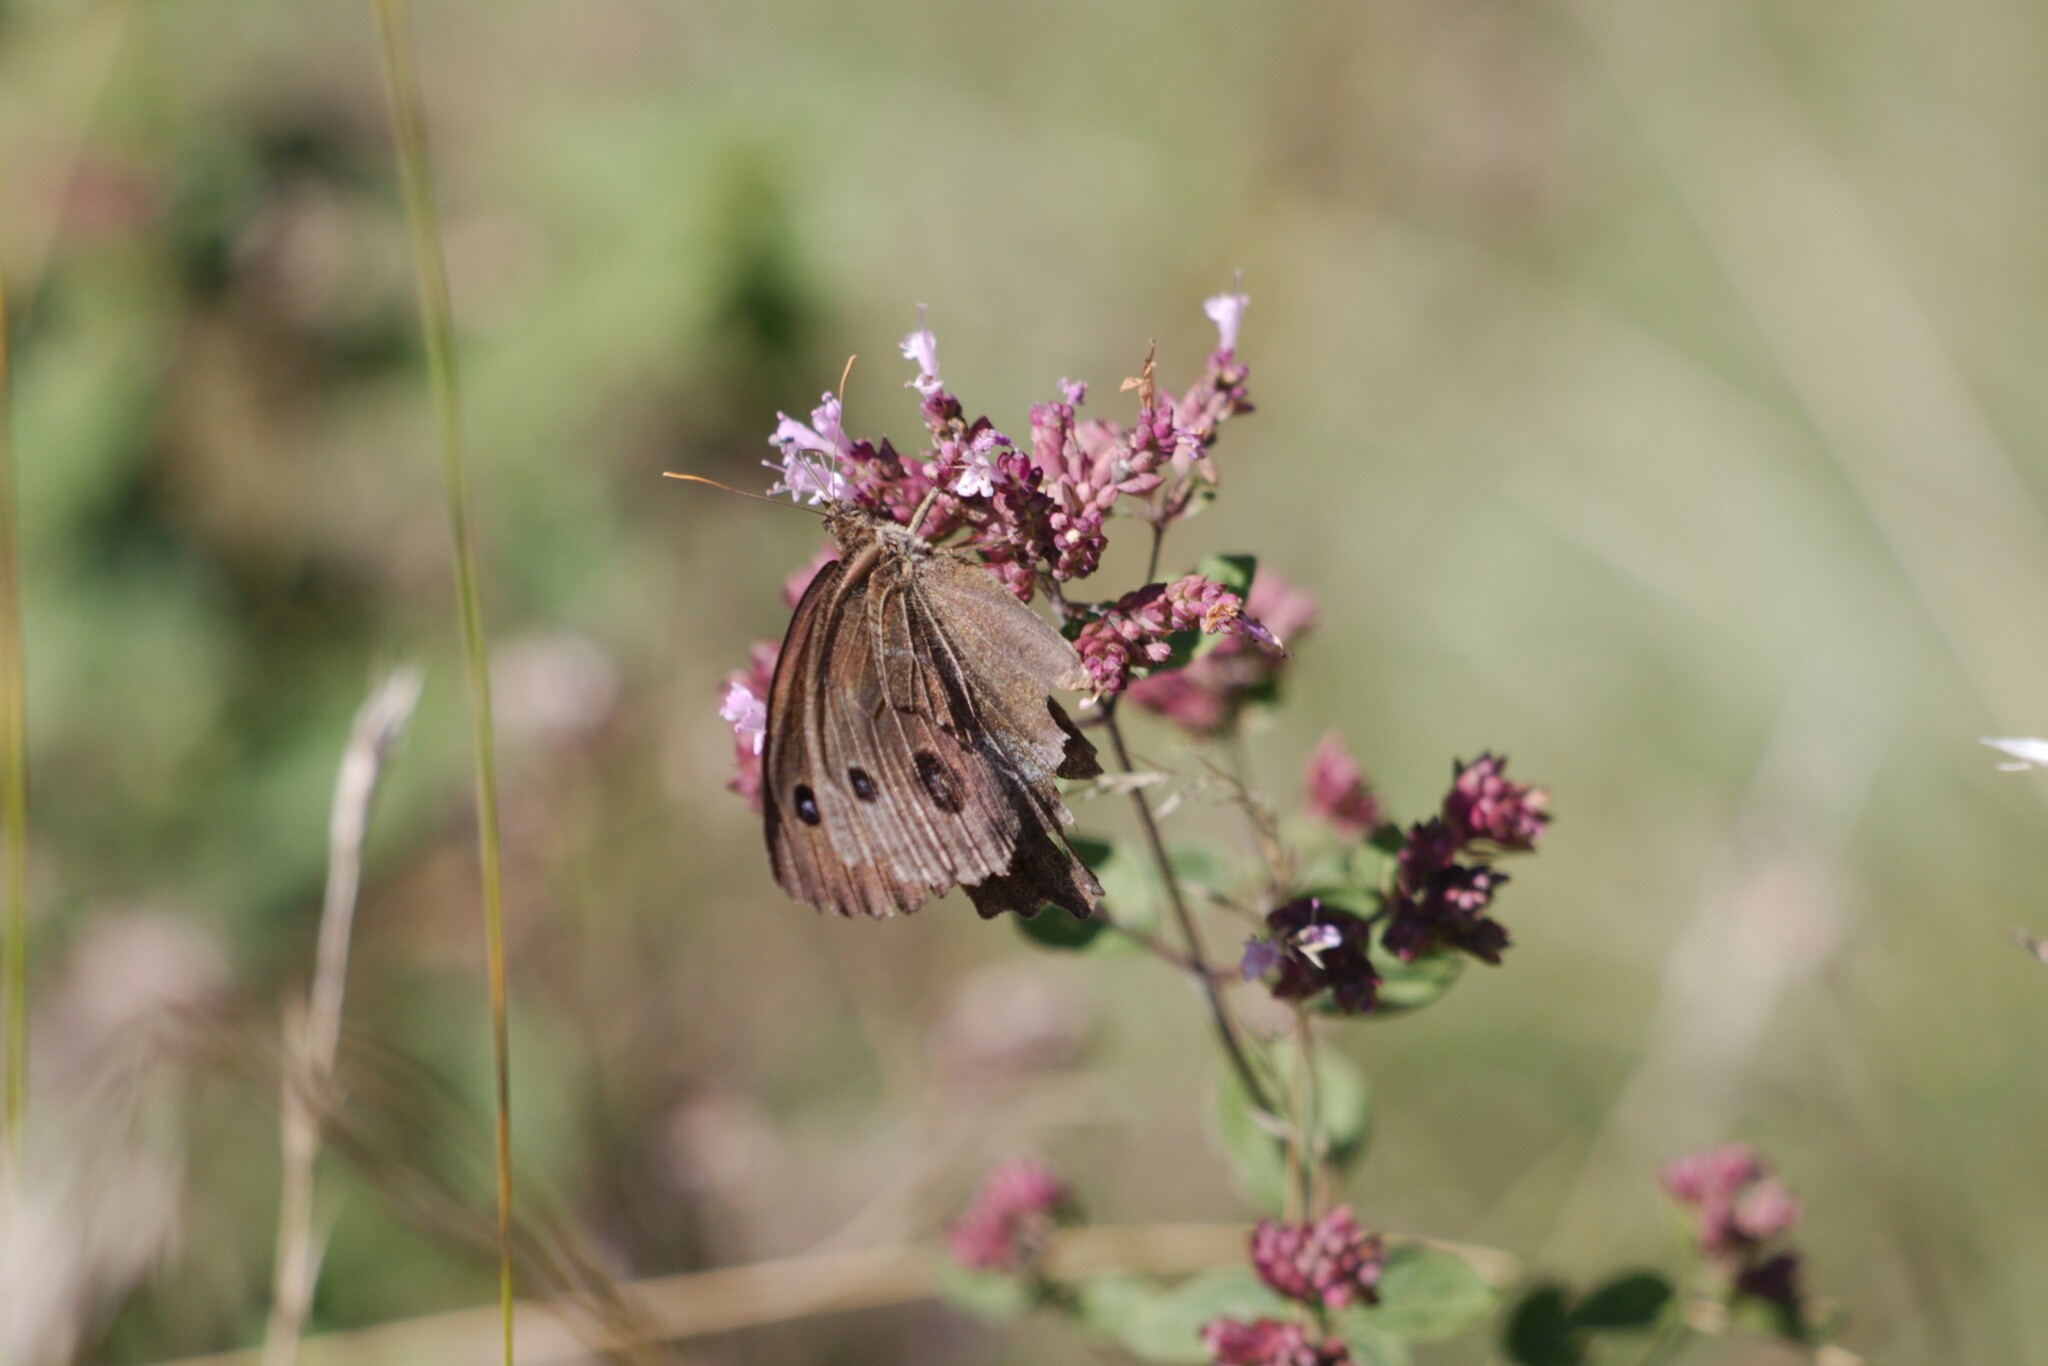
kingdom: Animalia
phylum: Arthropoda
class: Insecta
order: Lepidoptera
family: Nymphalidae
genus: Minois
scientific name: Minois dryas
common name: Dryad
